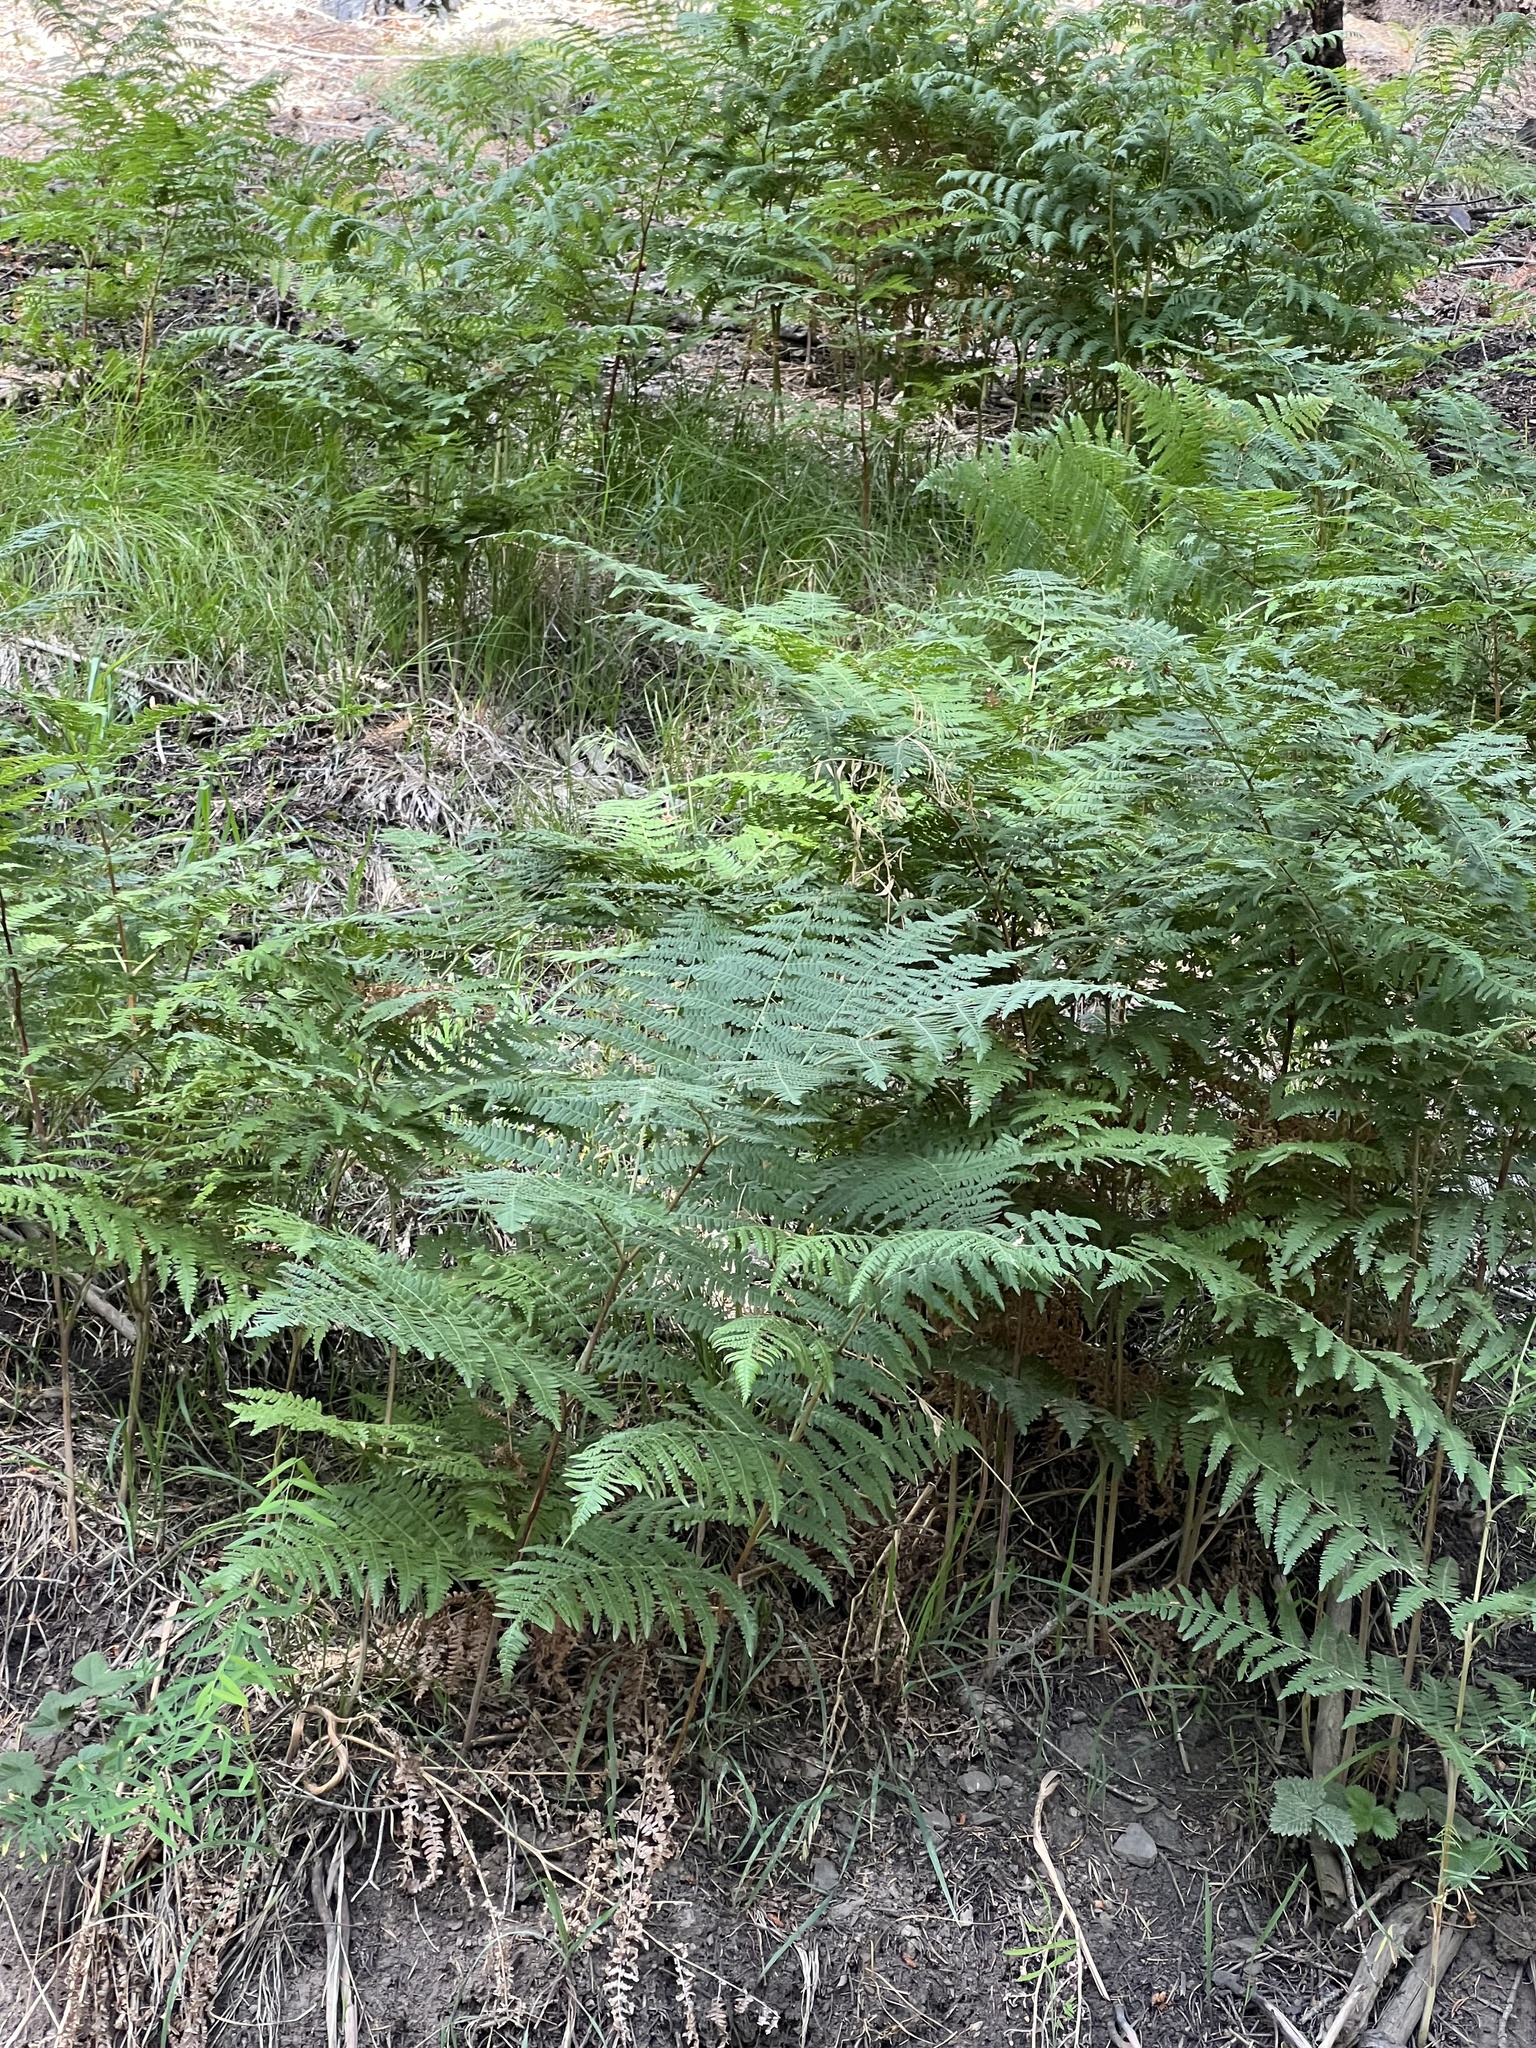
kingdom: Plantae
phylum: Tracheophyta
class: Polypodiopsida
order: Polypodiales
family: Dennstaedtiaceae
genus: Pteridium
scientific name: Pteridium aquilinum
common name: Bracken
